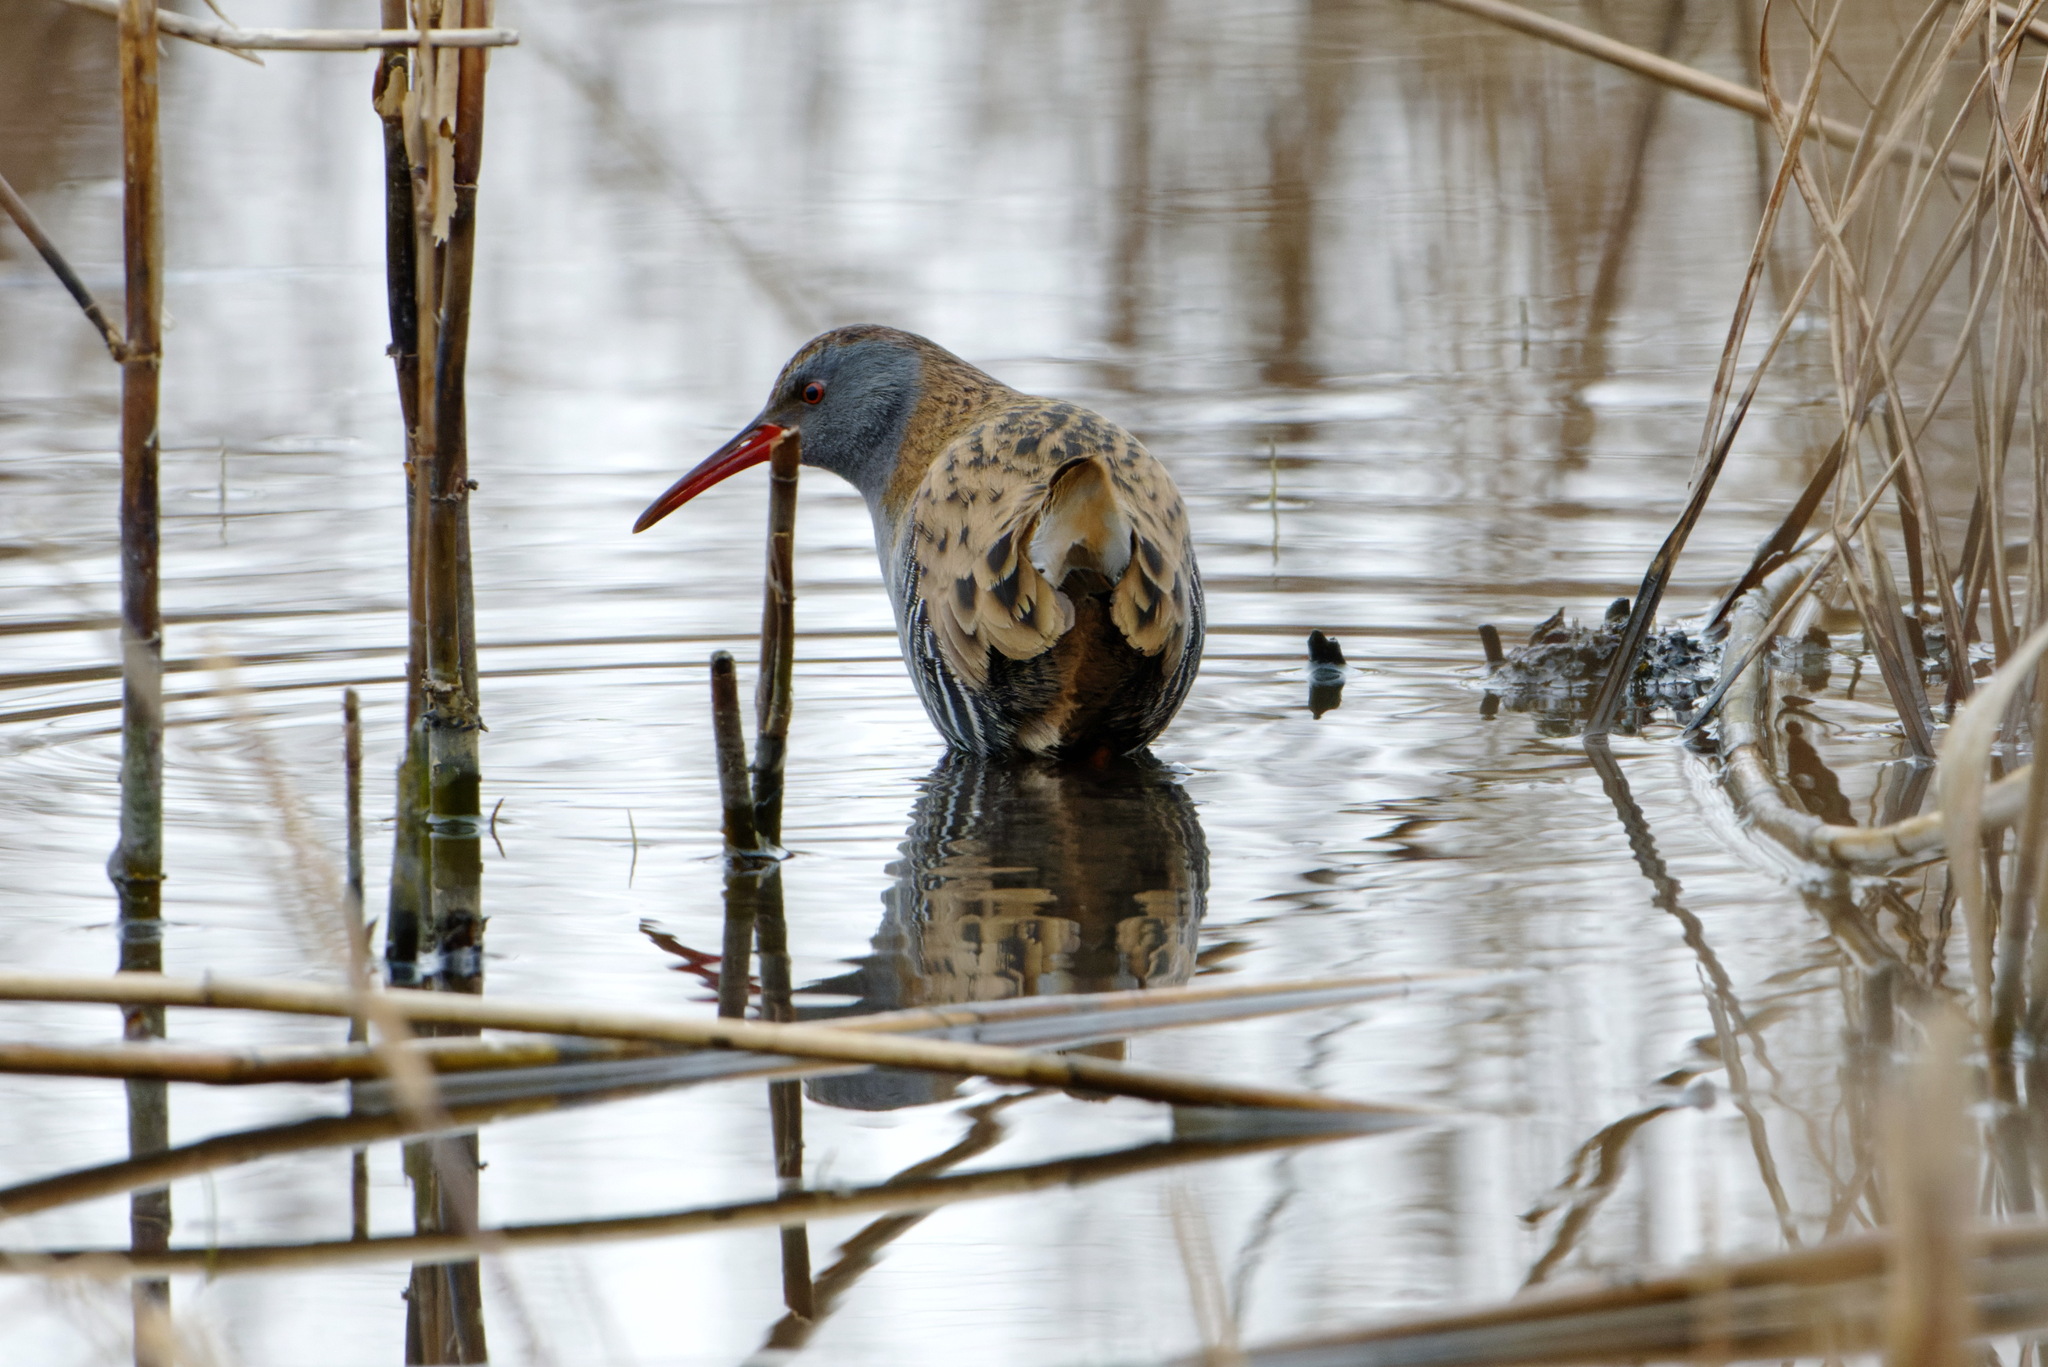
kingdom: Animalia
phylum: Chordata
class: Aves
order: Gruiformes
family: Rallidae
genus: Rallus
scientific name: Rallus aquaticus
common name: Water rail
